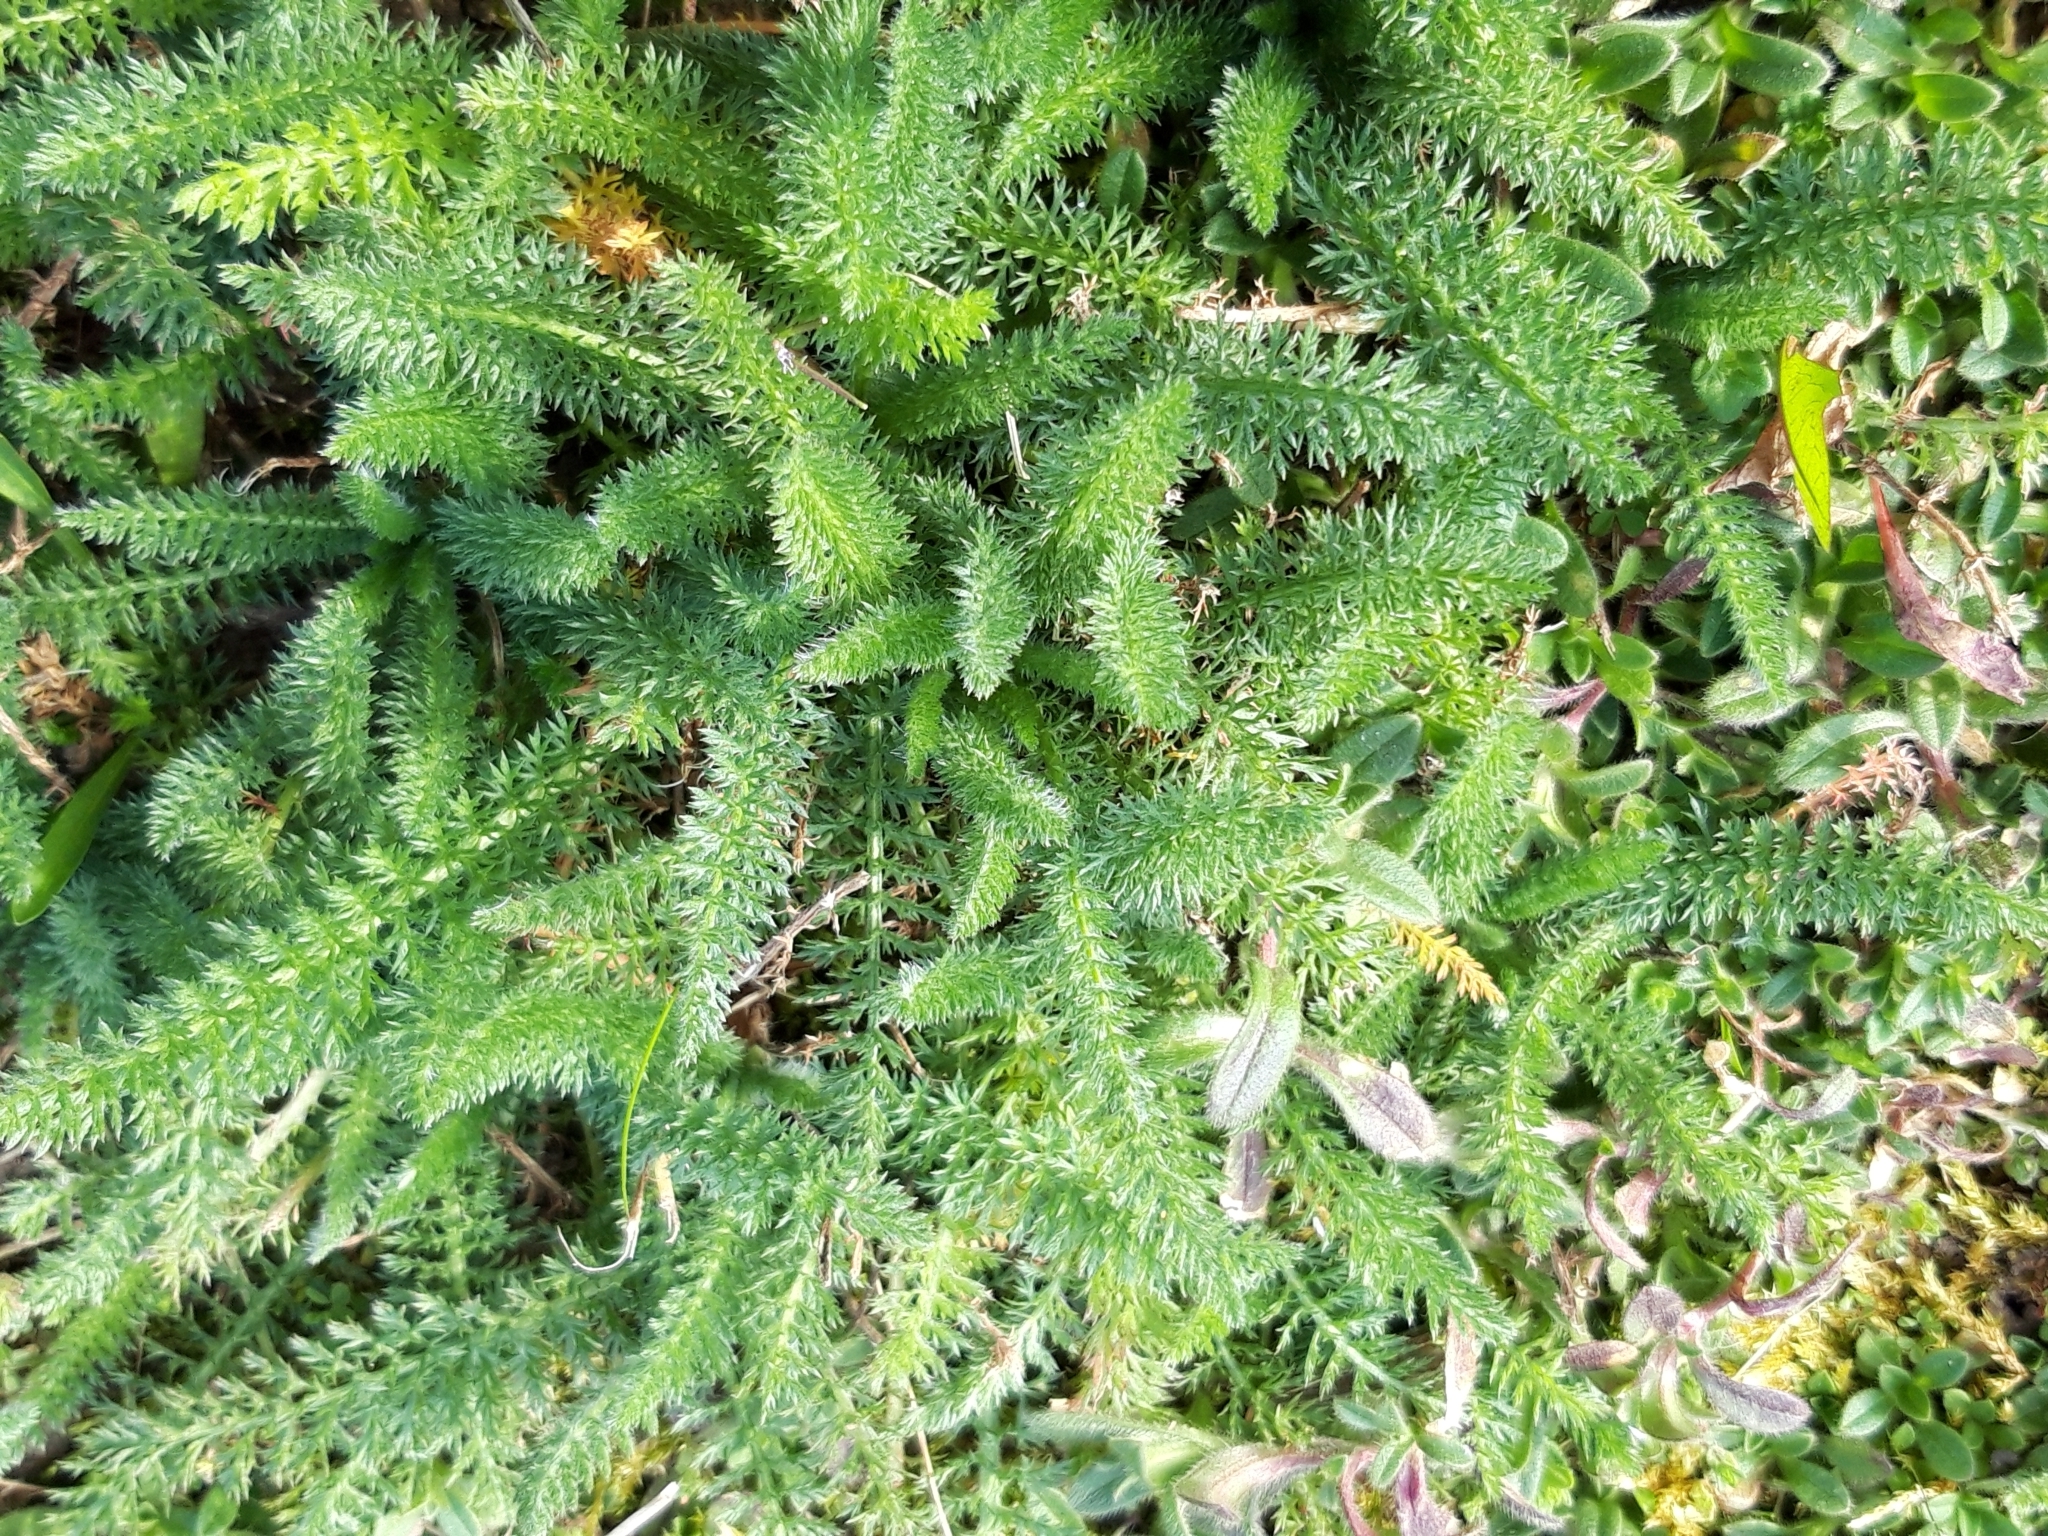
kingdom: Plantae
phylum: Tracheophyta
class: Magnoliopsida
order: Asterales
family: Asteraceae
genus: Achillea
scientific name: Achillea millefolium
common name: Yarrow
